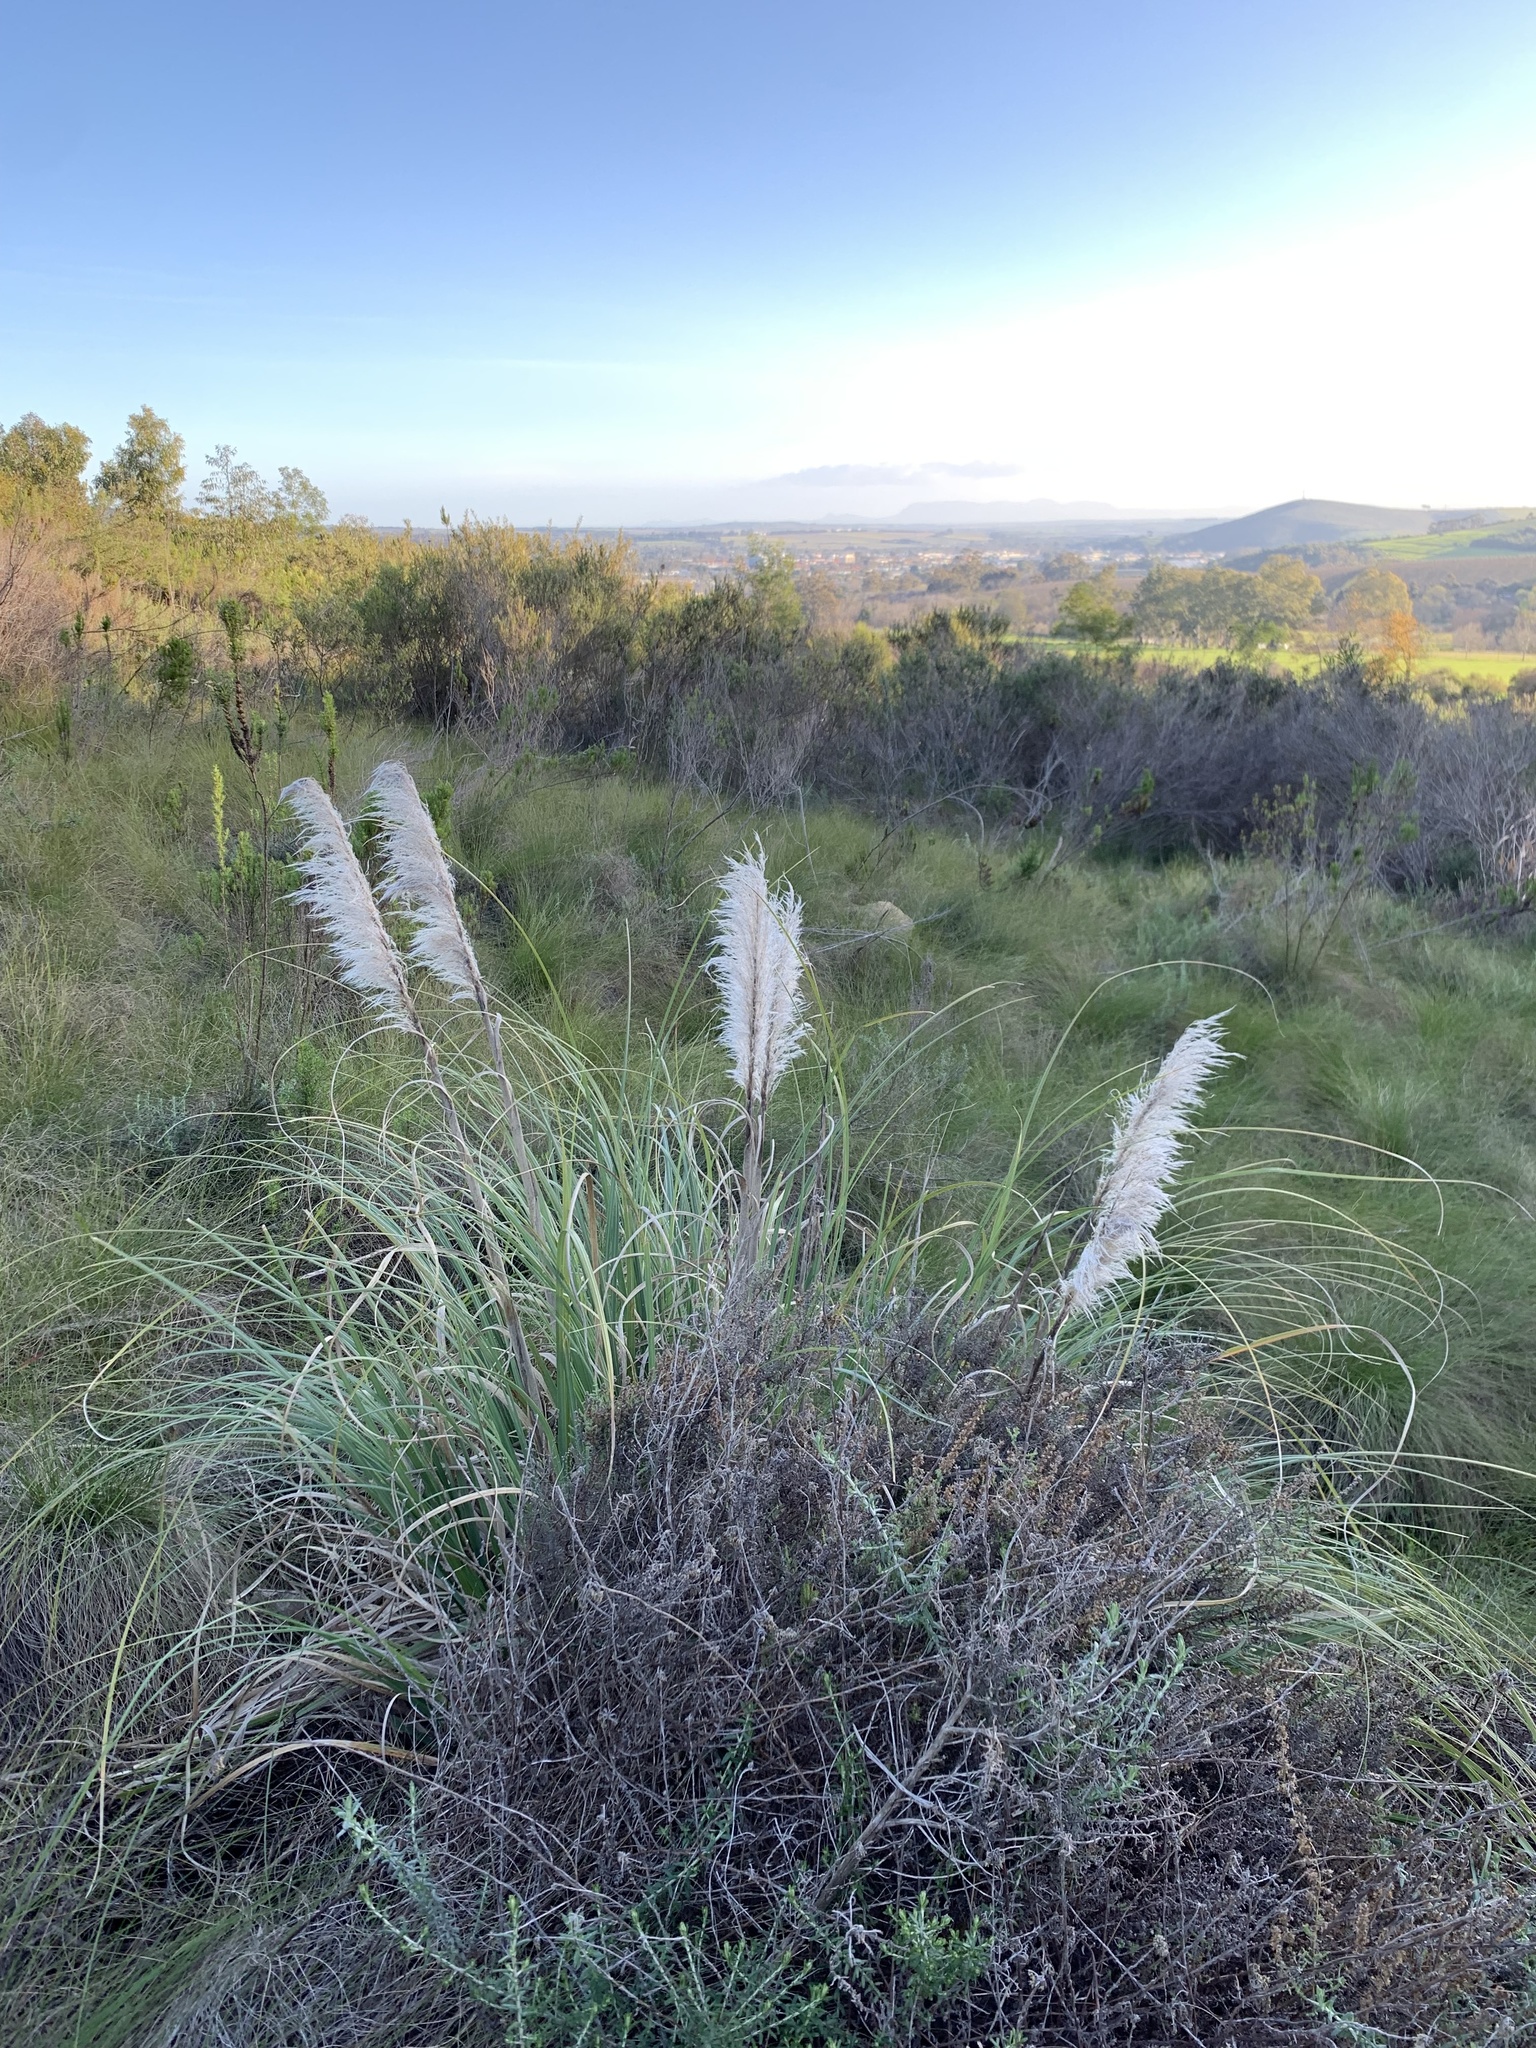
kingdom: Plantae
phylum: Tracheophyta
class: Liliopsida
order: Poales
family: Poaceae
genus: Cortaderia
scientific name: Cortaderia selloana
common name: Uruguayan pampas grass
